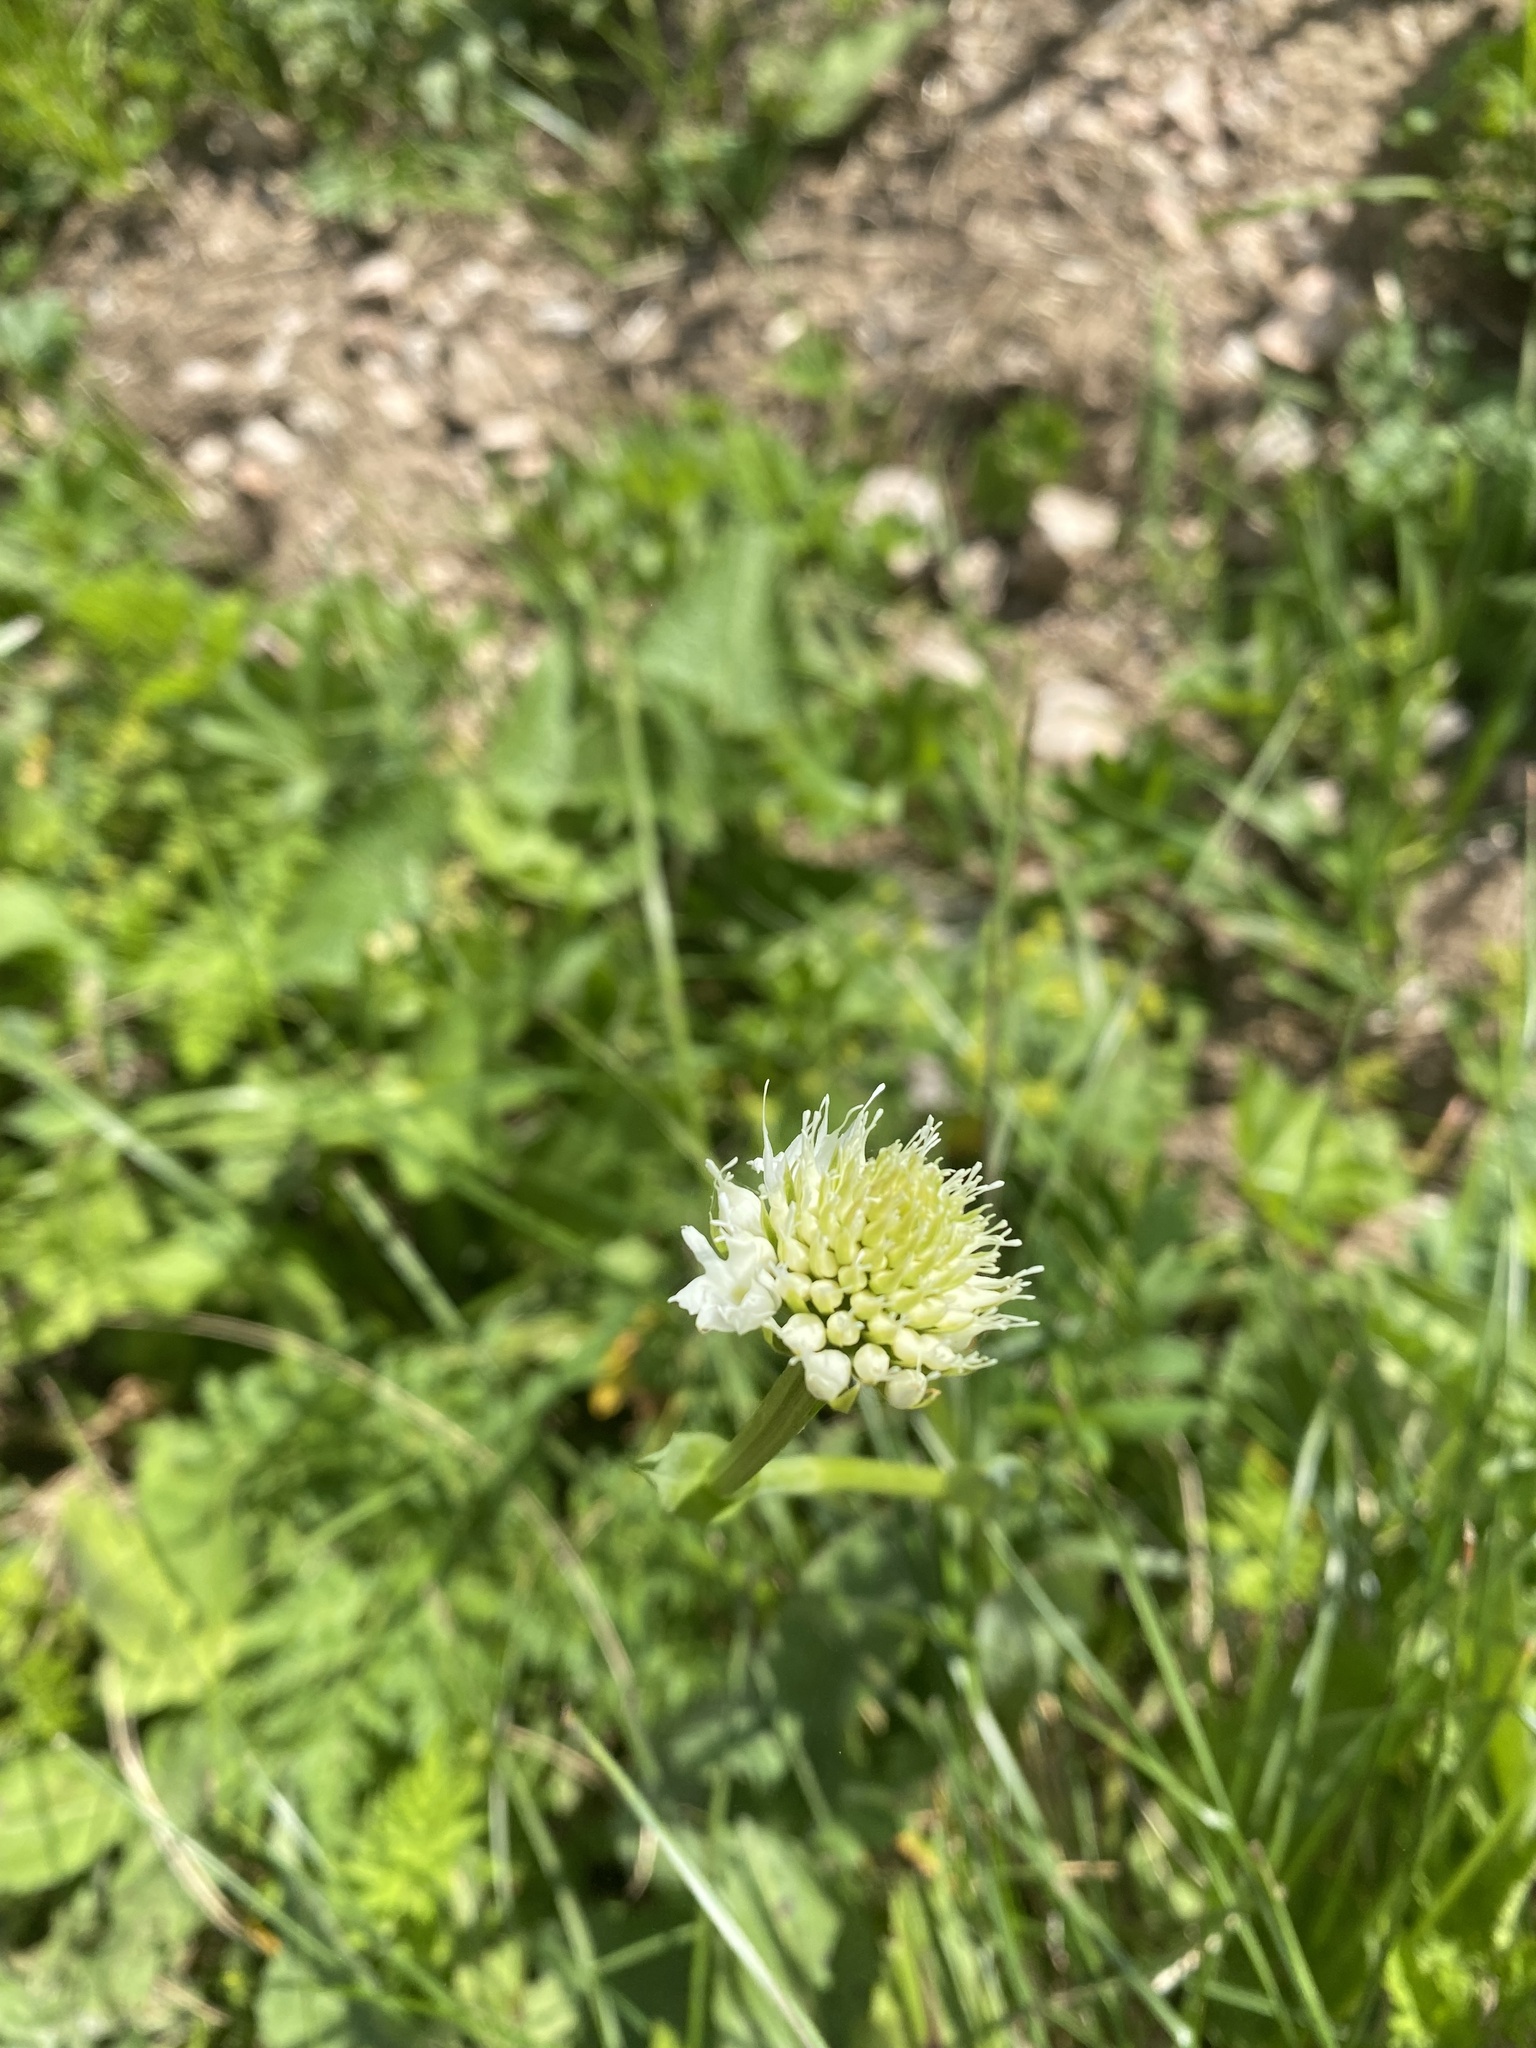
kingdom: Plantae
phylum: Tracheophyta
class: Liliopsida
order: Asparagales
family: Orchidaceae
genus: Traunsteinera
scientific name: Traunsteinera sphaerica
